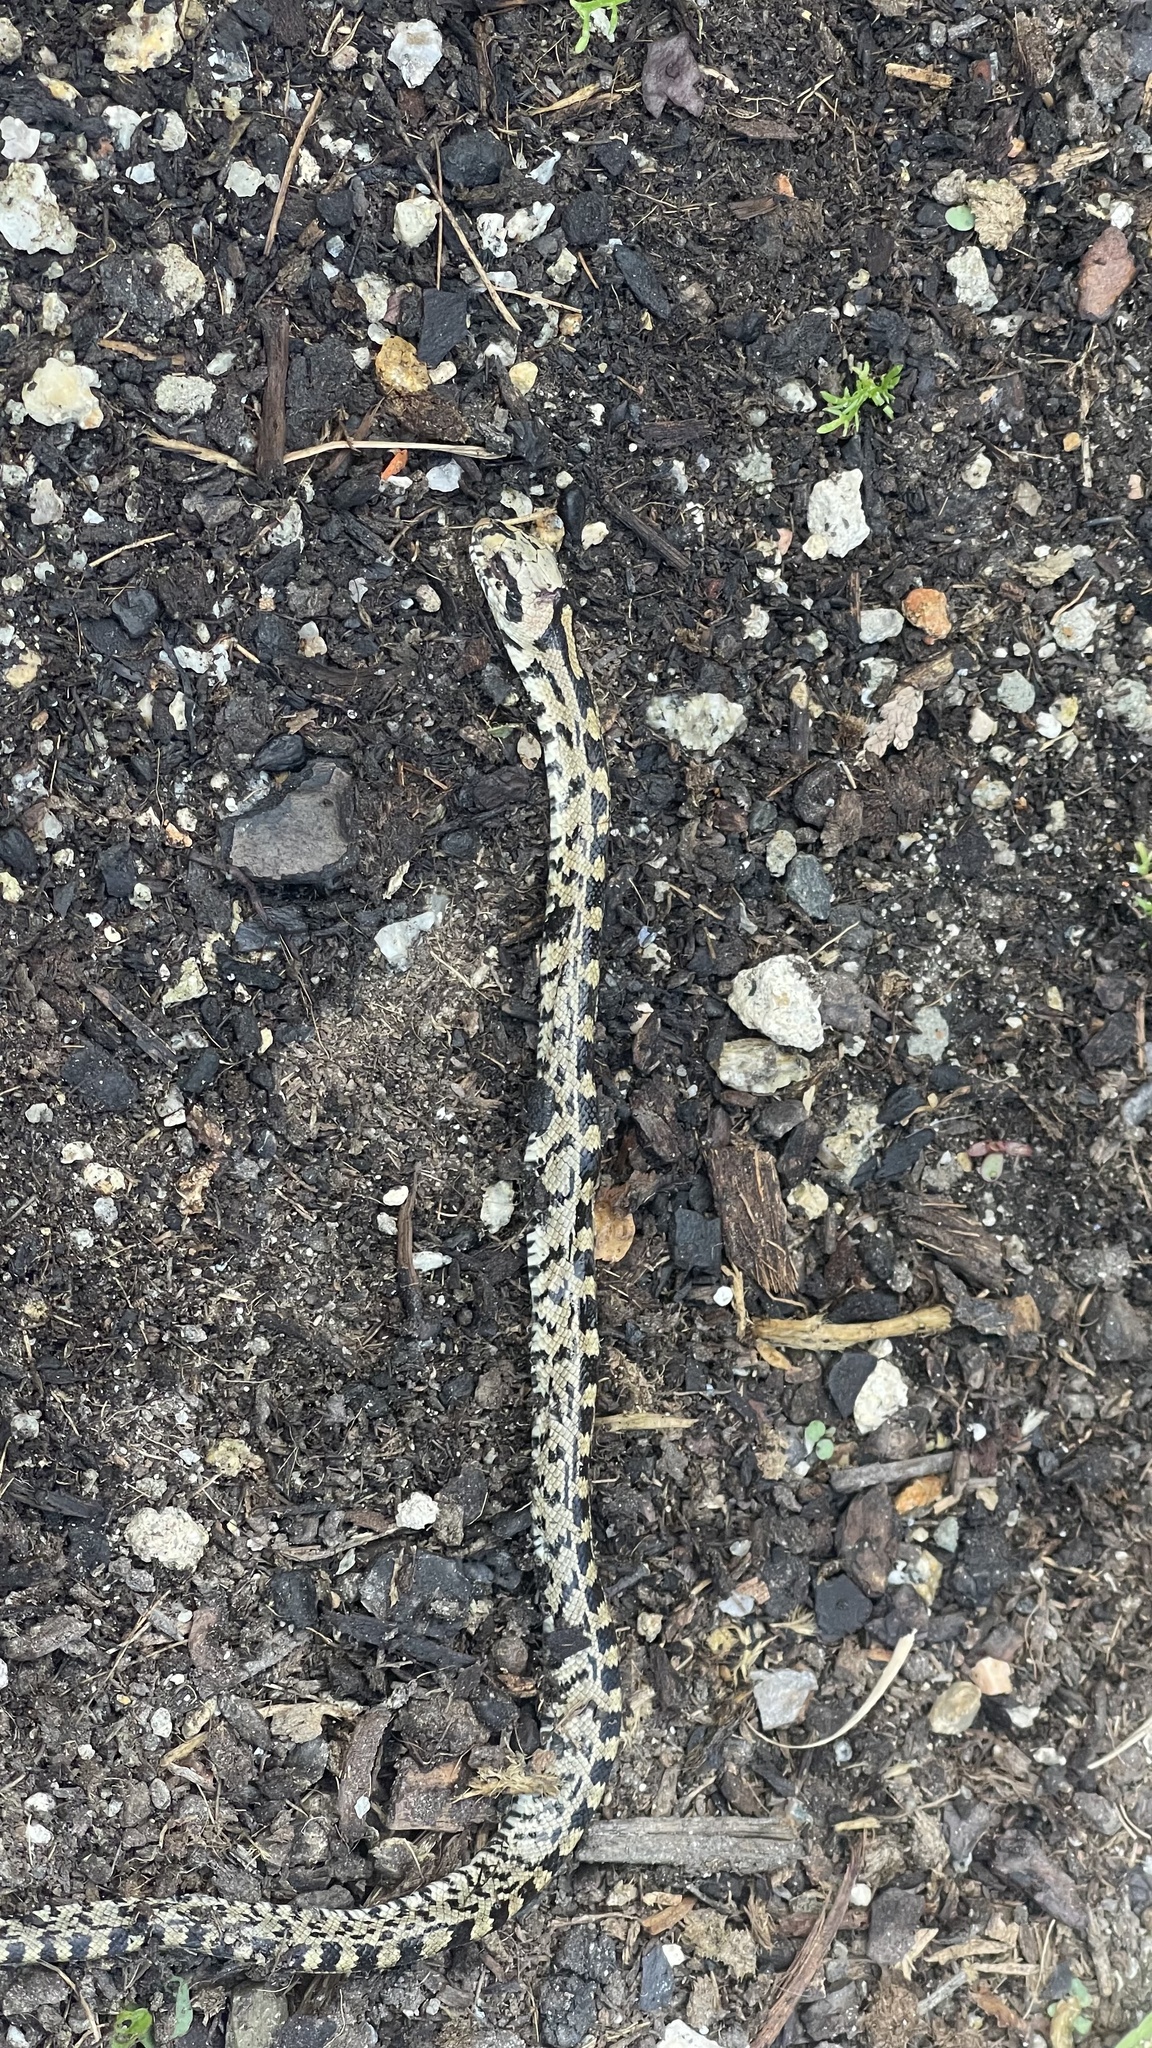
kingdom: Animalia
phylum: Chordata
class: Squamata
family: Colubridae
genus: Zamenis
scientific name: Zamenis scalaris
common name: Ladder snakes
